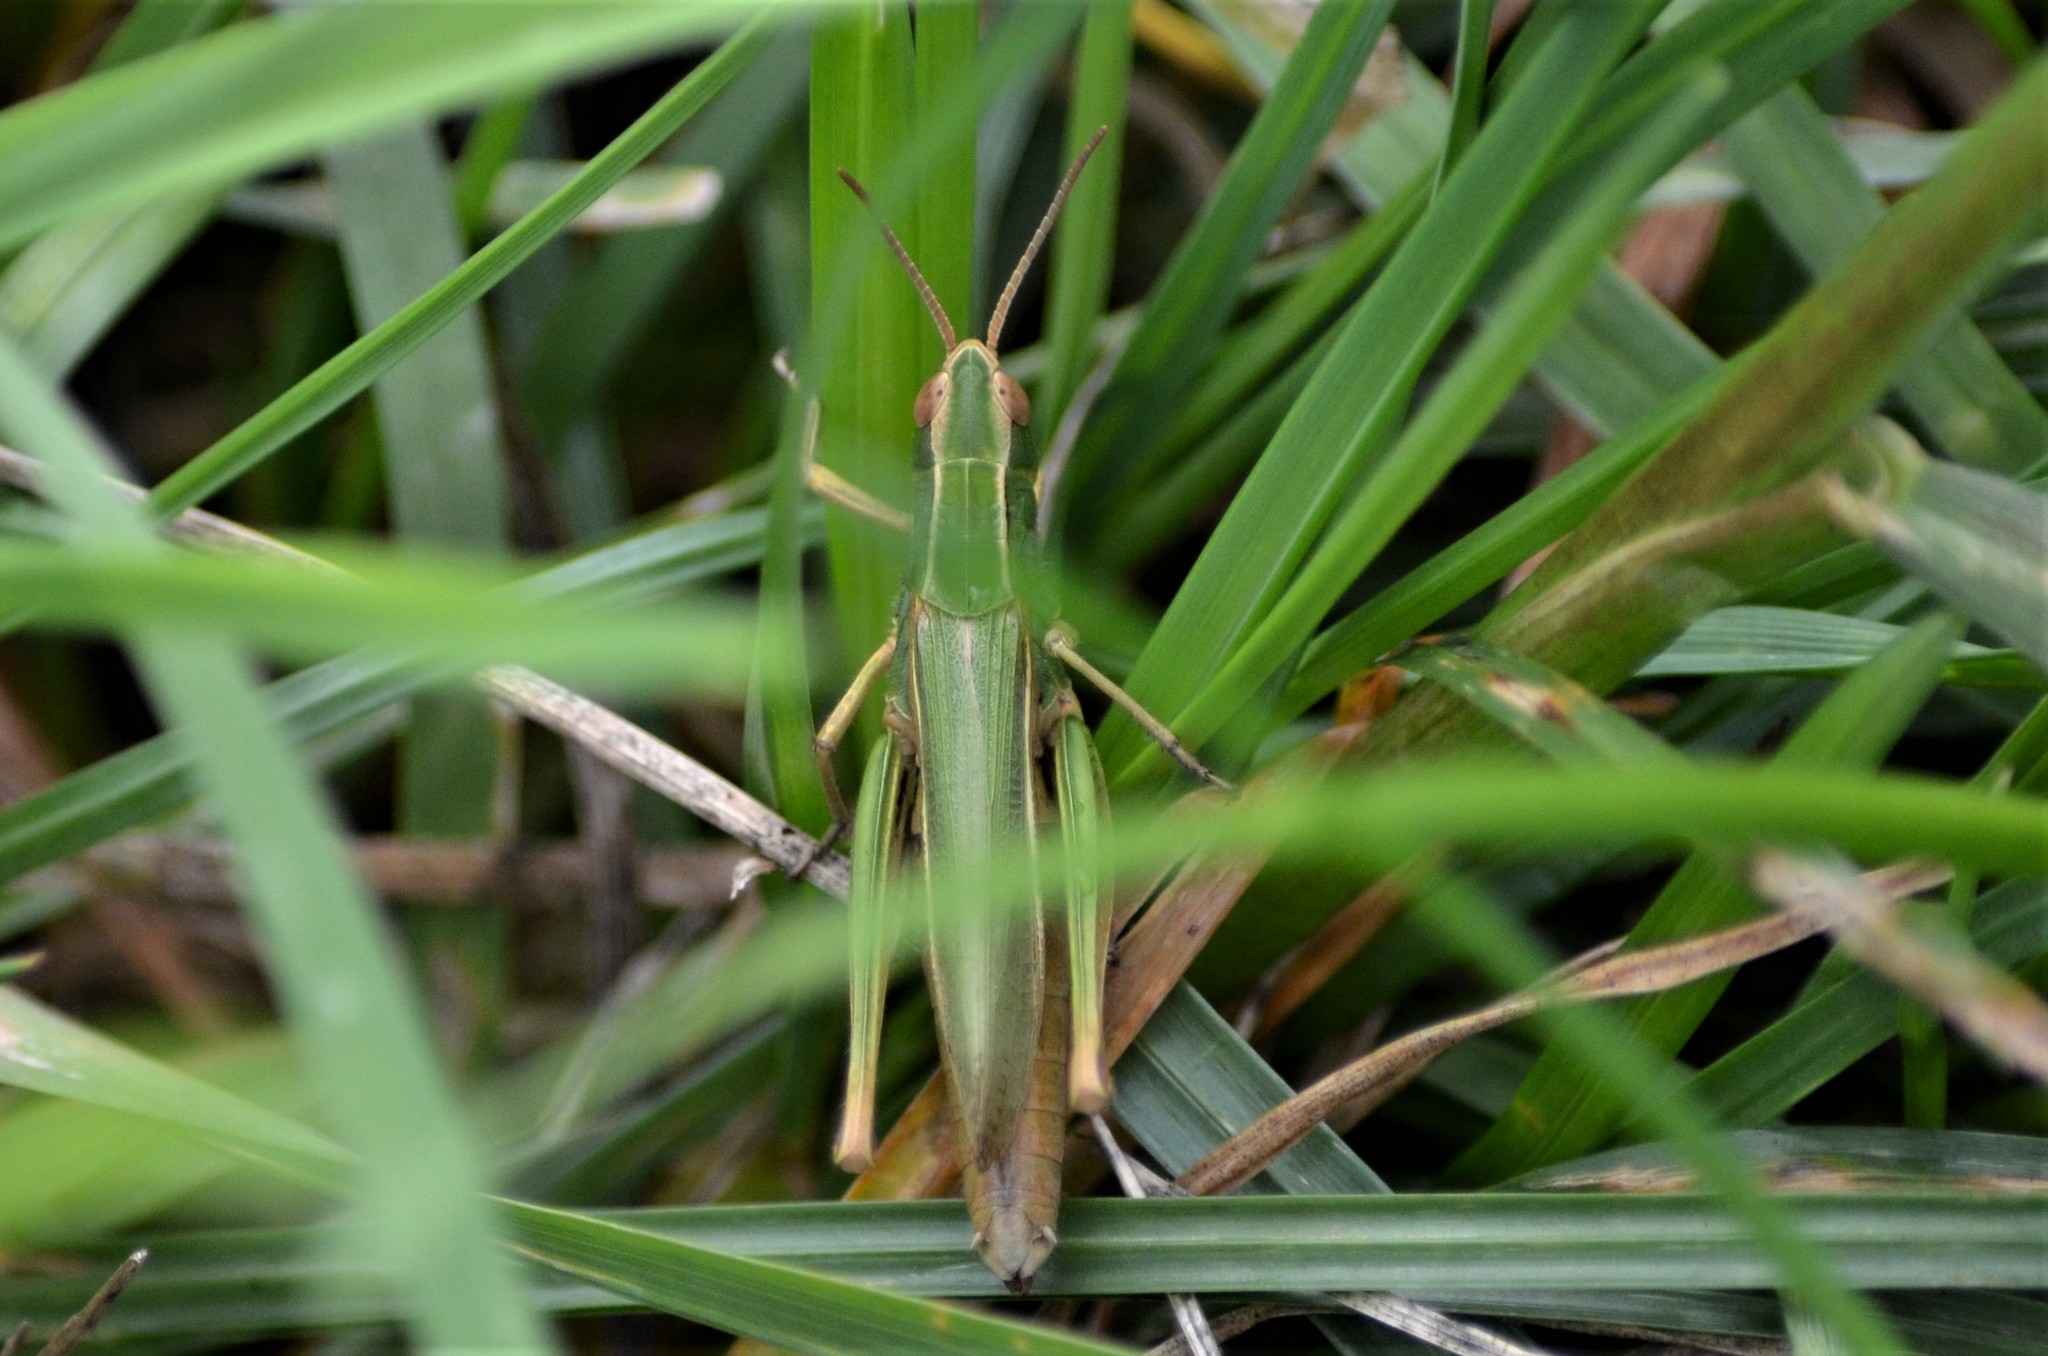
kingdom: Animalia
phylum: Arthropoda
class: Insecta
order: Orthoptera
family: Acrididae
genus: Chorthippus
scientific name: Chorthippus albomarginatus
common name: Lesser marsh grasshopper
